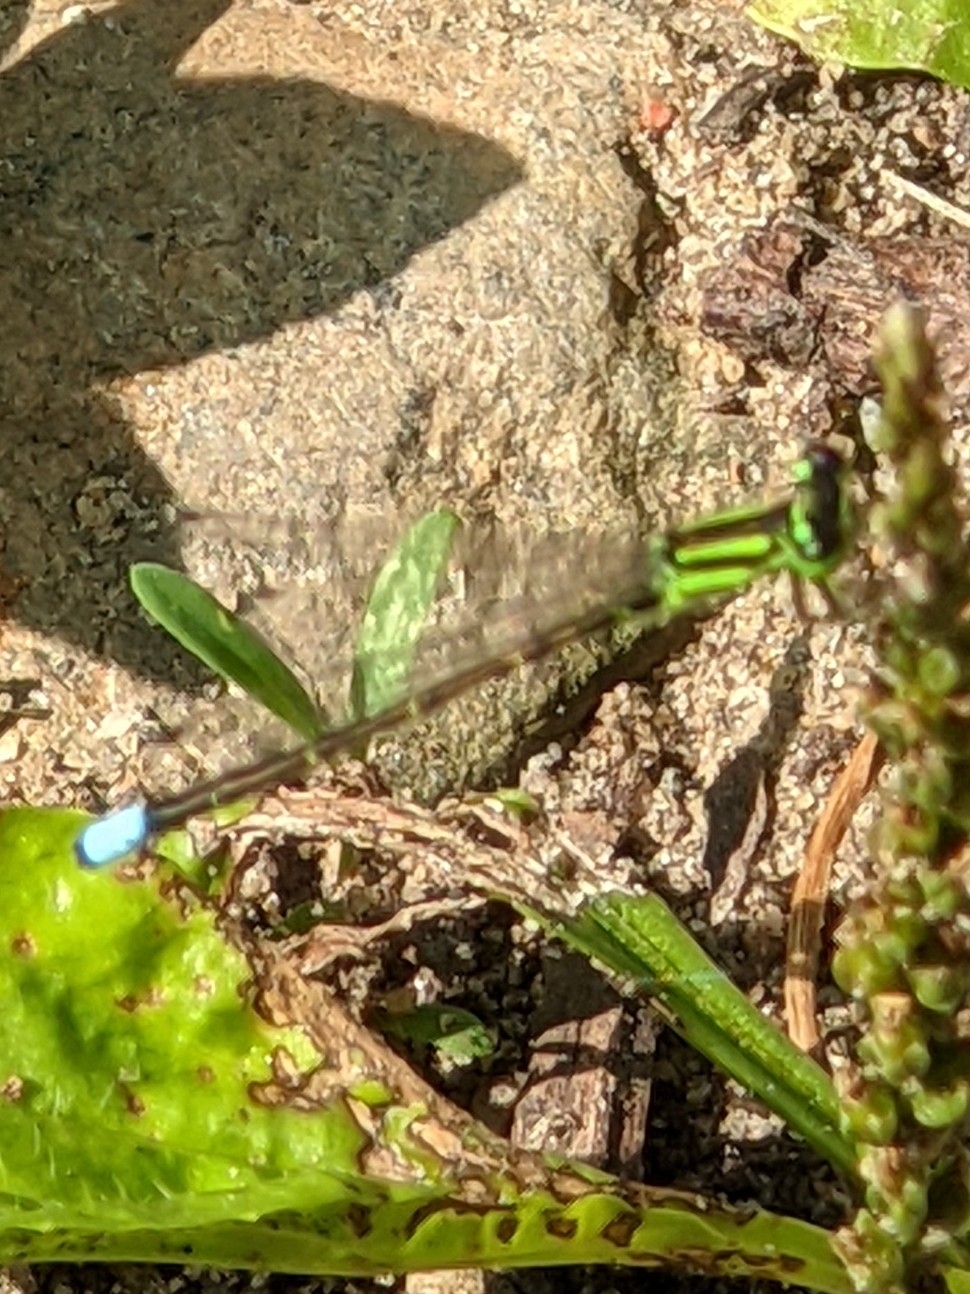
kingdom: Animalia
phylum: Arthropoda
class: Insecta
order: Odonata
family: Coenagrionidae
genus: Ischnura
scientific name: Ischnura verticalis
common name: Eastern forktail
